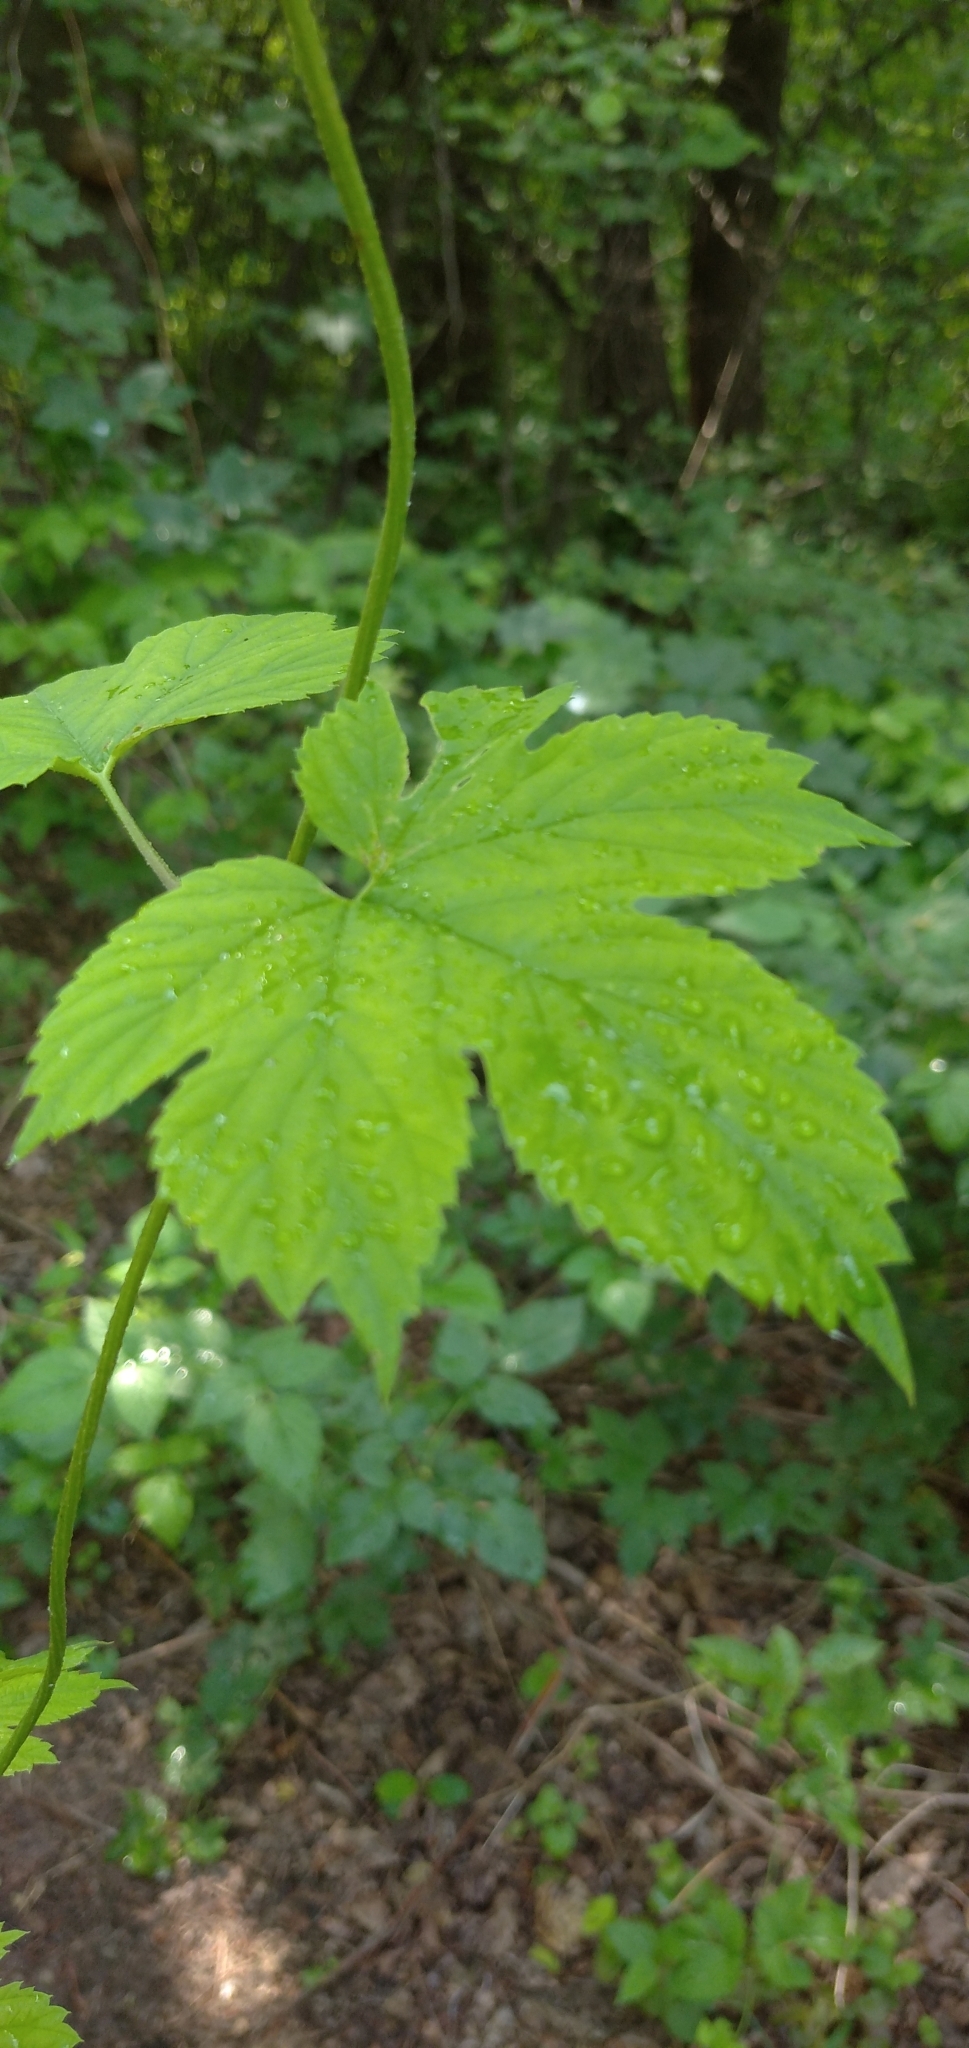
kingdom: Plantae
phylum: Tracheophyta
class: Magnoliopsida
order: Rosales
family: Rosaceae
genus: Rubus
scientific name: Rubus idaeus
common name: Raspberry
